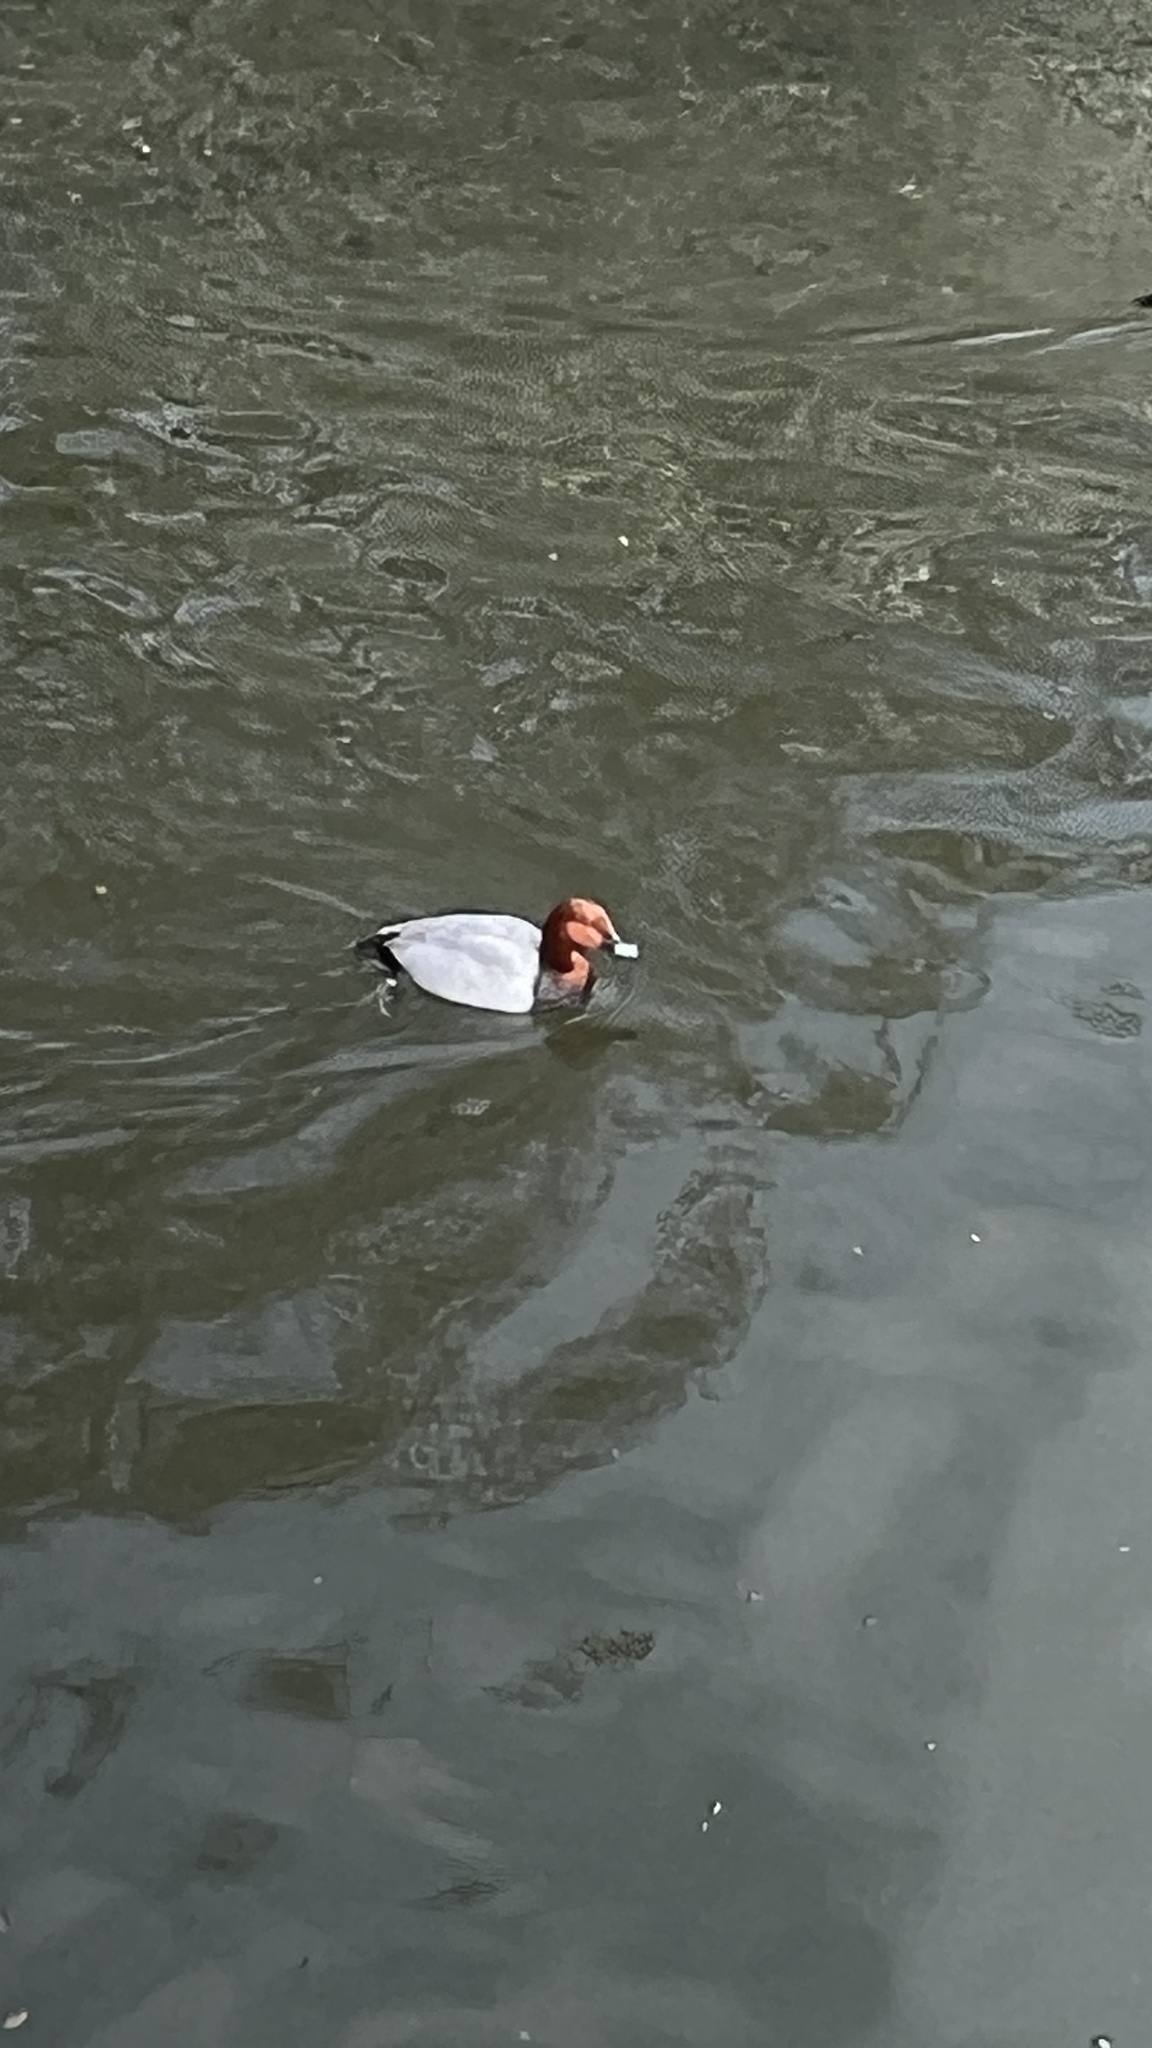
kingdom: Animalia
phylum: Chordata
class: Aves
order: Anseriformes
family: Anatidae
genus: Aythya
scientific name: Aythya ferina
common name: Common pochard
